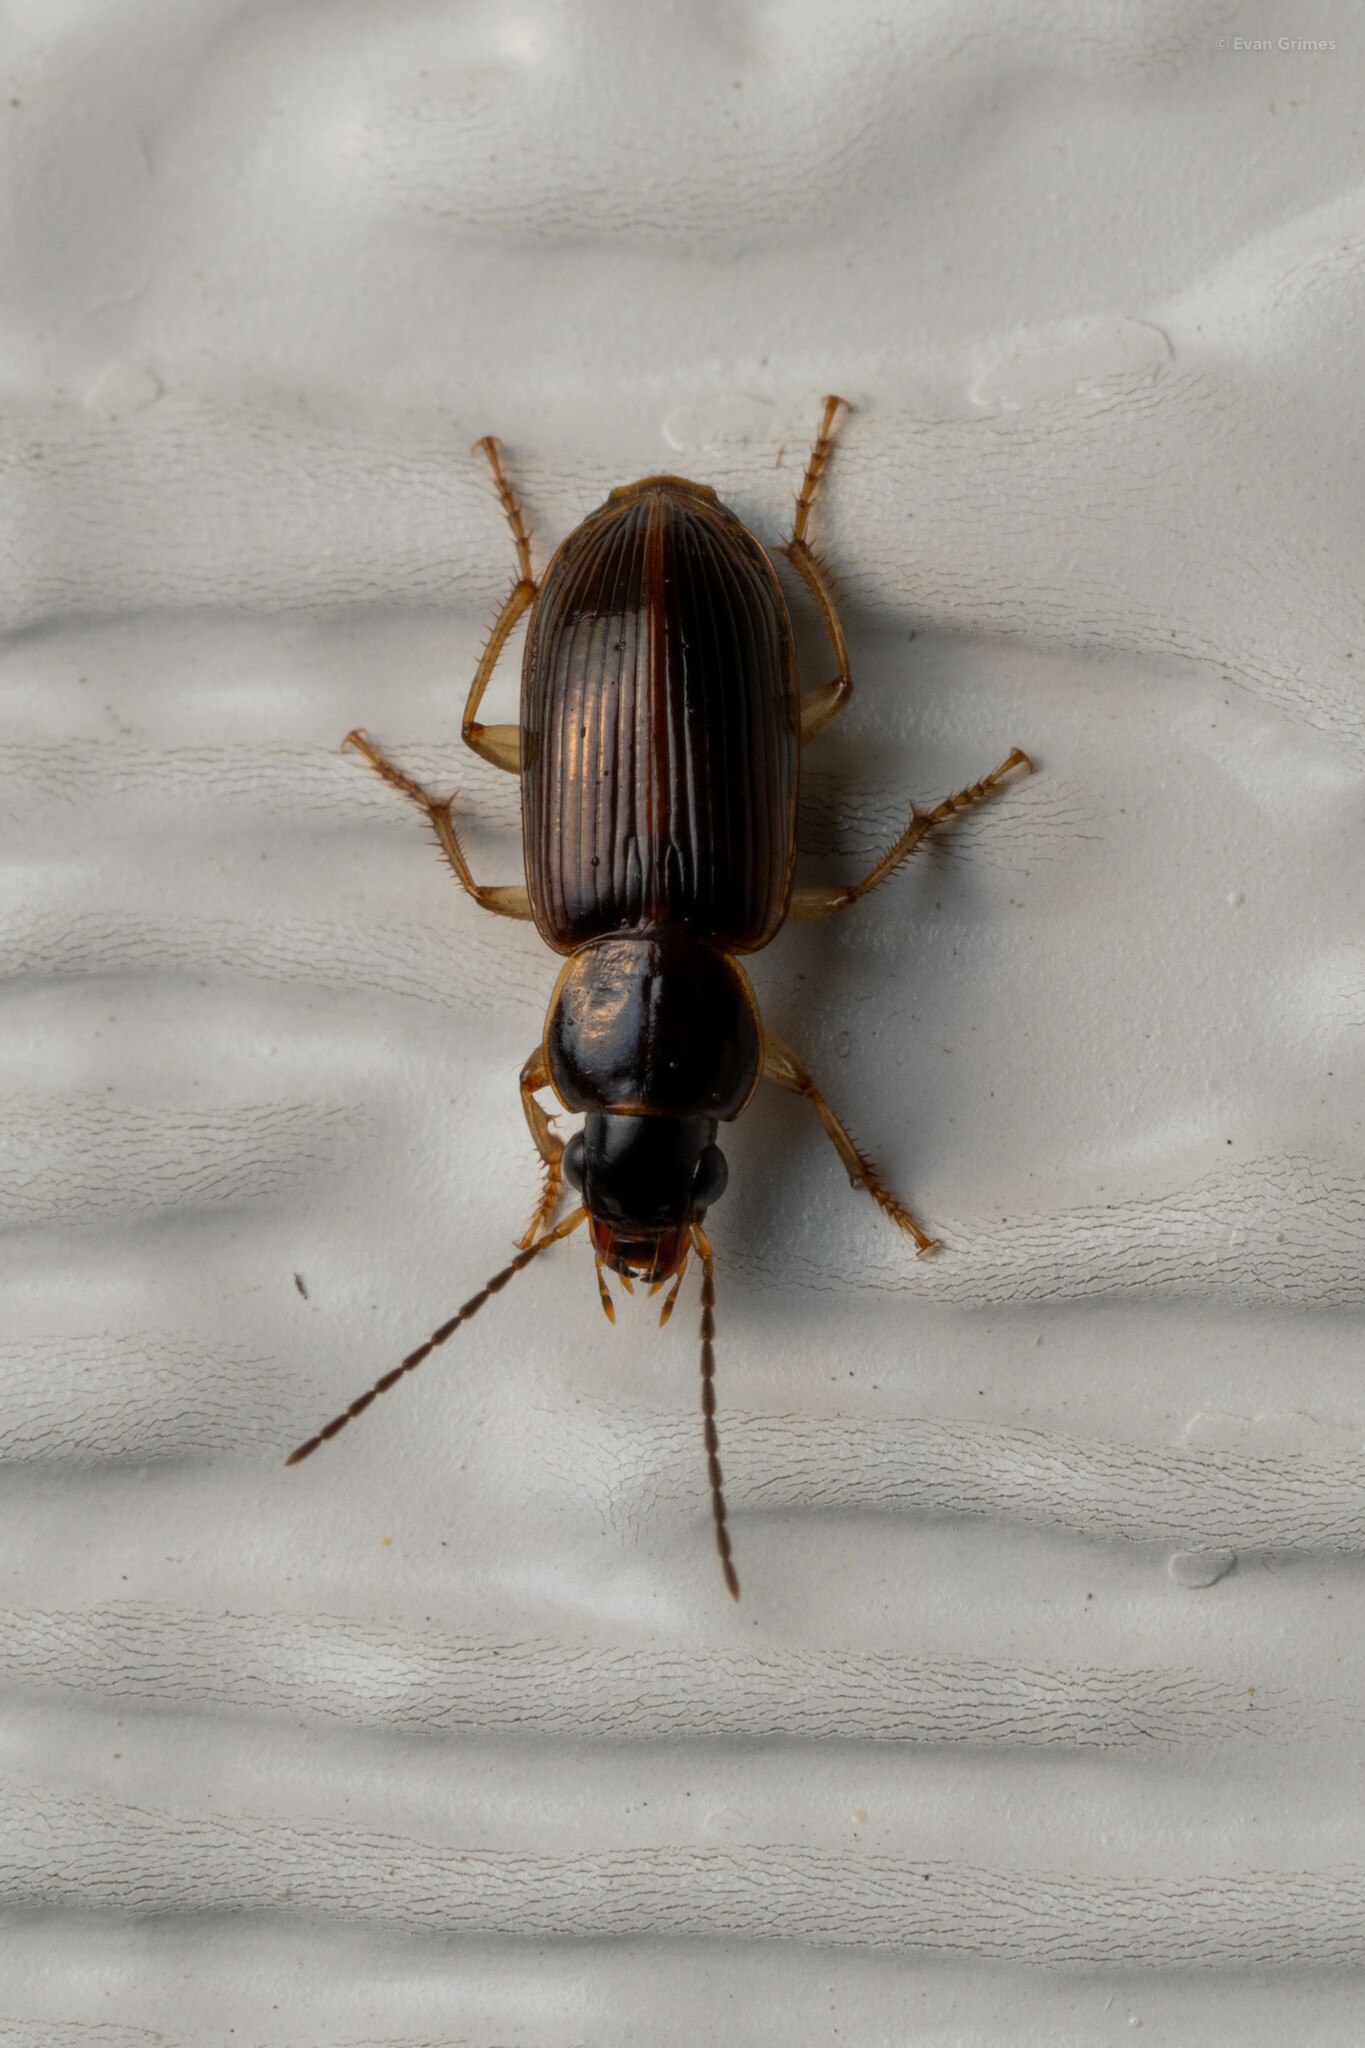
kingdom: Animalia
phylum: Arthropoda
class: Insecta
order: Coleoptera
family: Carabidae
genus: Stenolophus
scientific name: Stenolophus ochropezus
